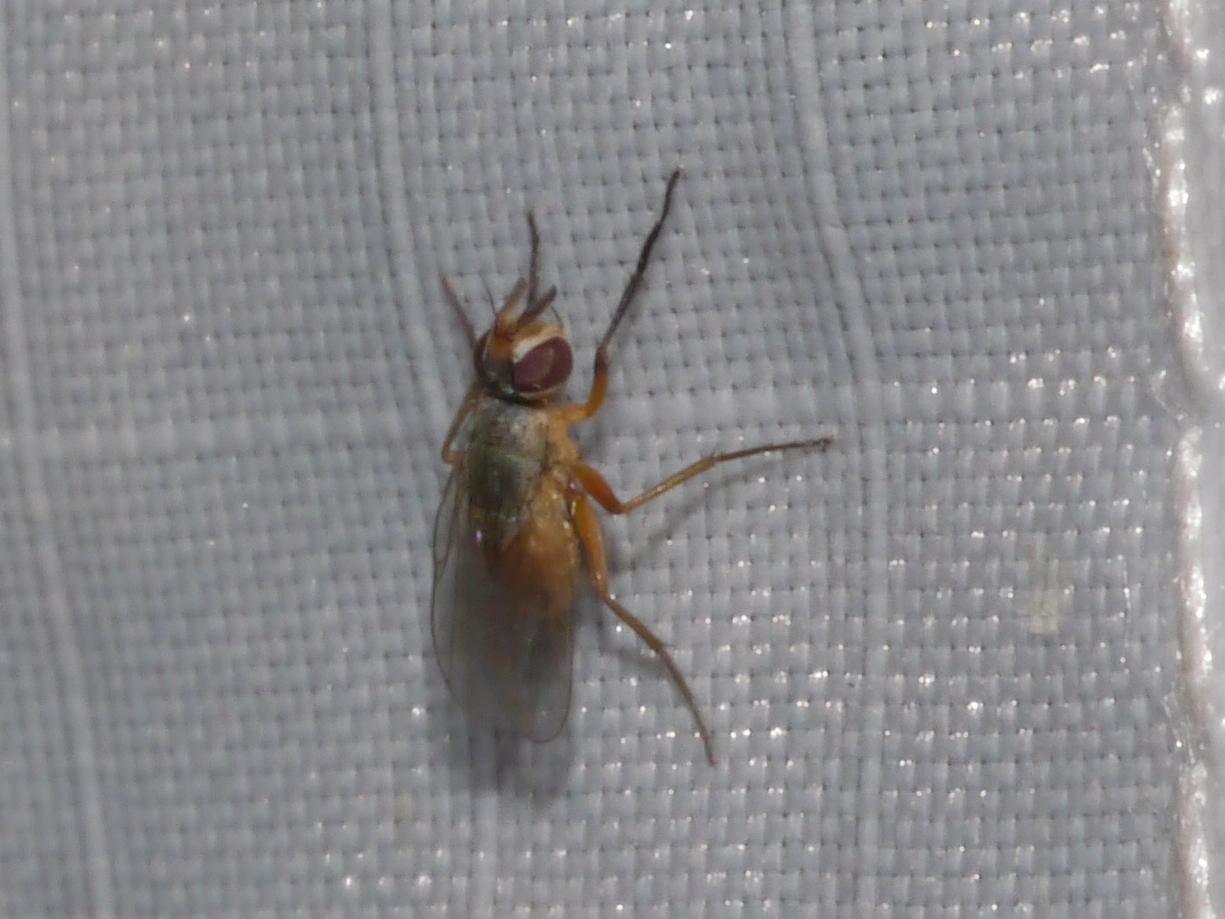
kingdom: Animalia
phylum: Arthropoda
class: Insecta
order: Diptera
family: Muscidae
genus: Atherigona
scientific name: Atherigona reversura
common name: Bermudagrass stem maggot
